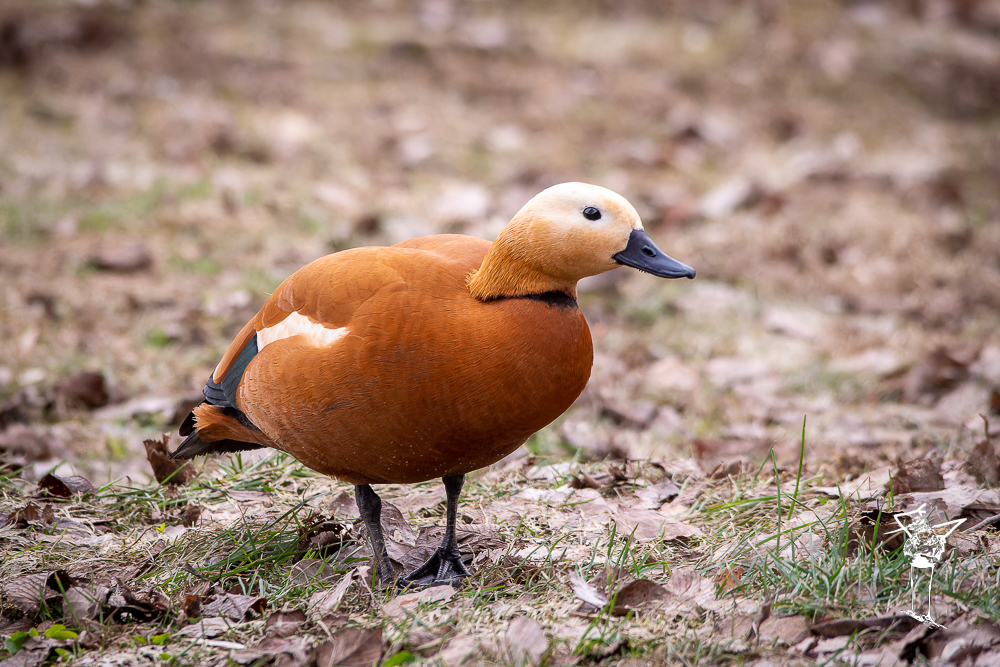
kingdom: Animalia
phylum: Chordata
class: Aves
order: Anseriformes
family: Anatidae
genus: Tadorna
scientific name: Tadorna ferruginea
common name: Ruddy shelduck
